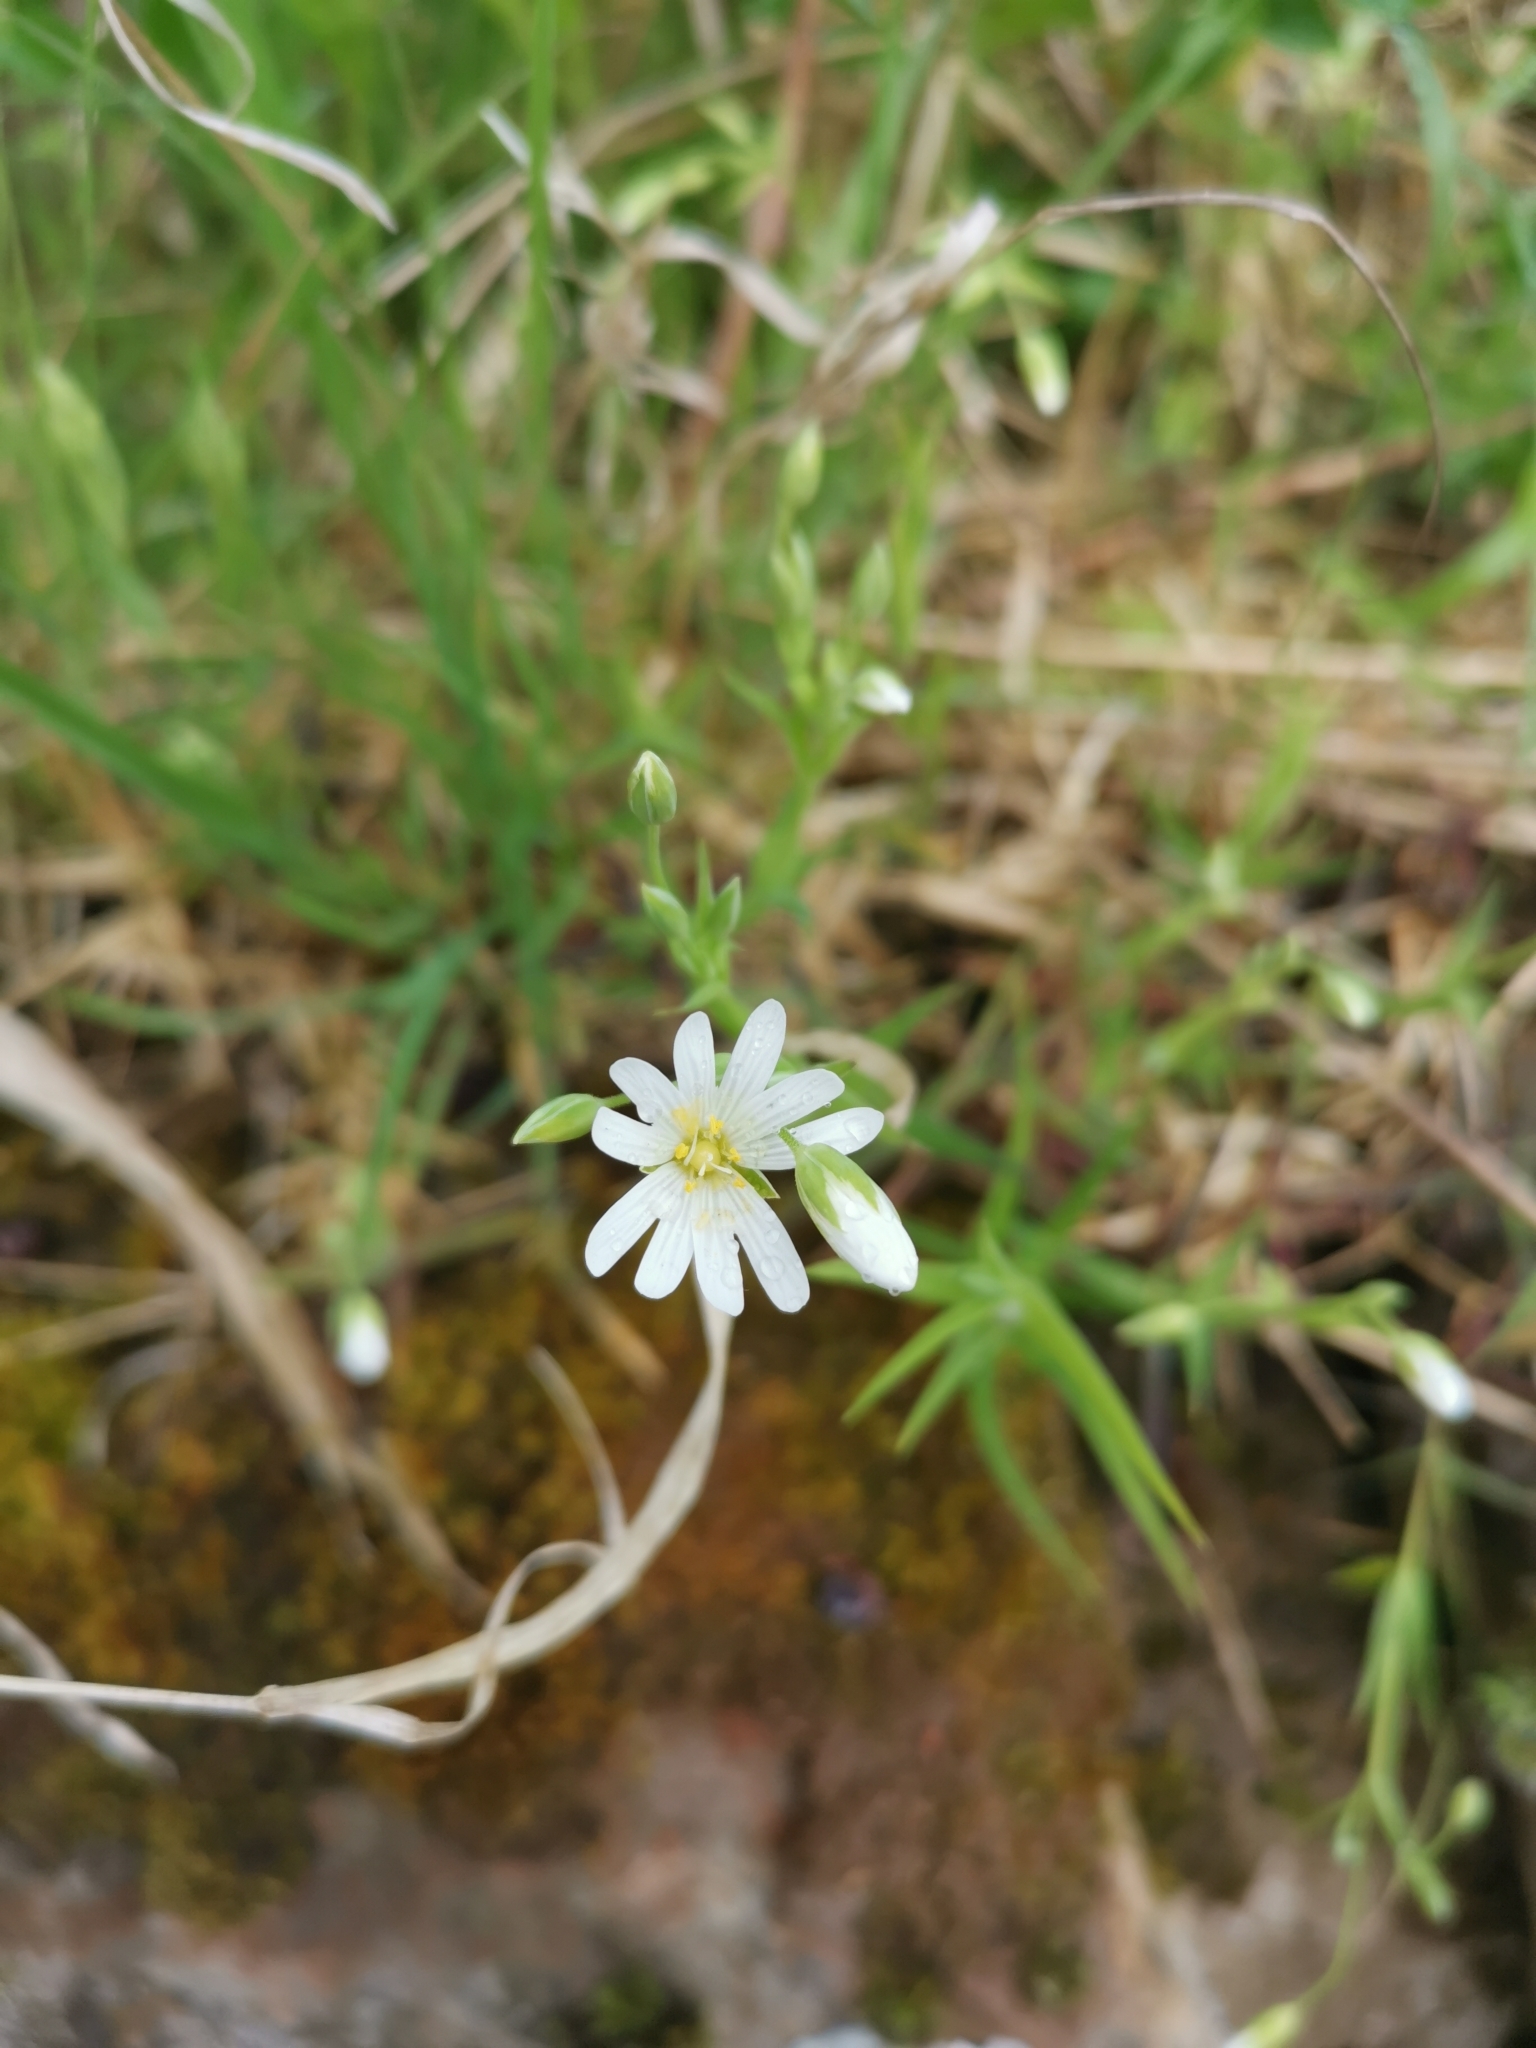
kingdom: Plantae
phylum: Tracheophyta
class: Magnoliopsida
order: Caryophyllales
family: Caryophyllaceae
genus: Rabelera
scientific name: Rabelera holostea
